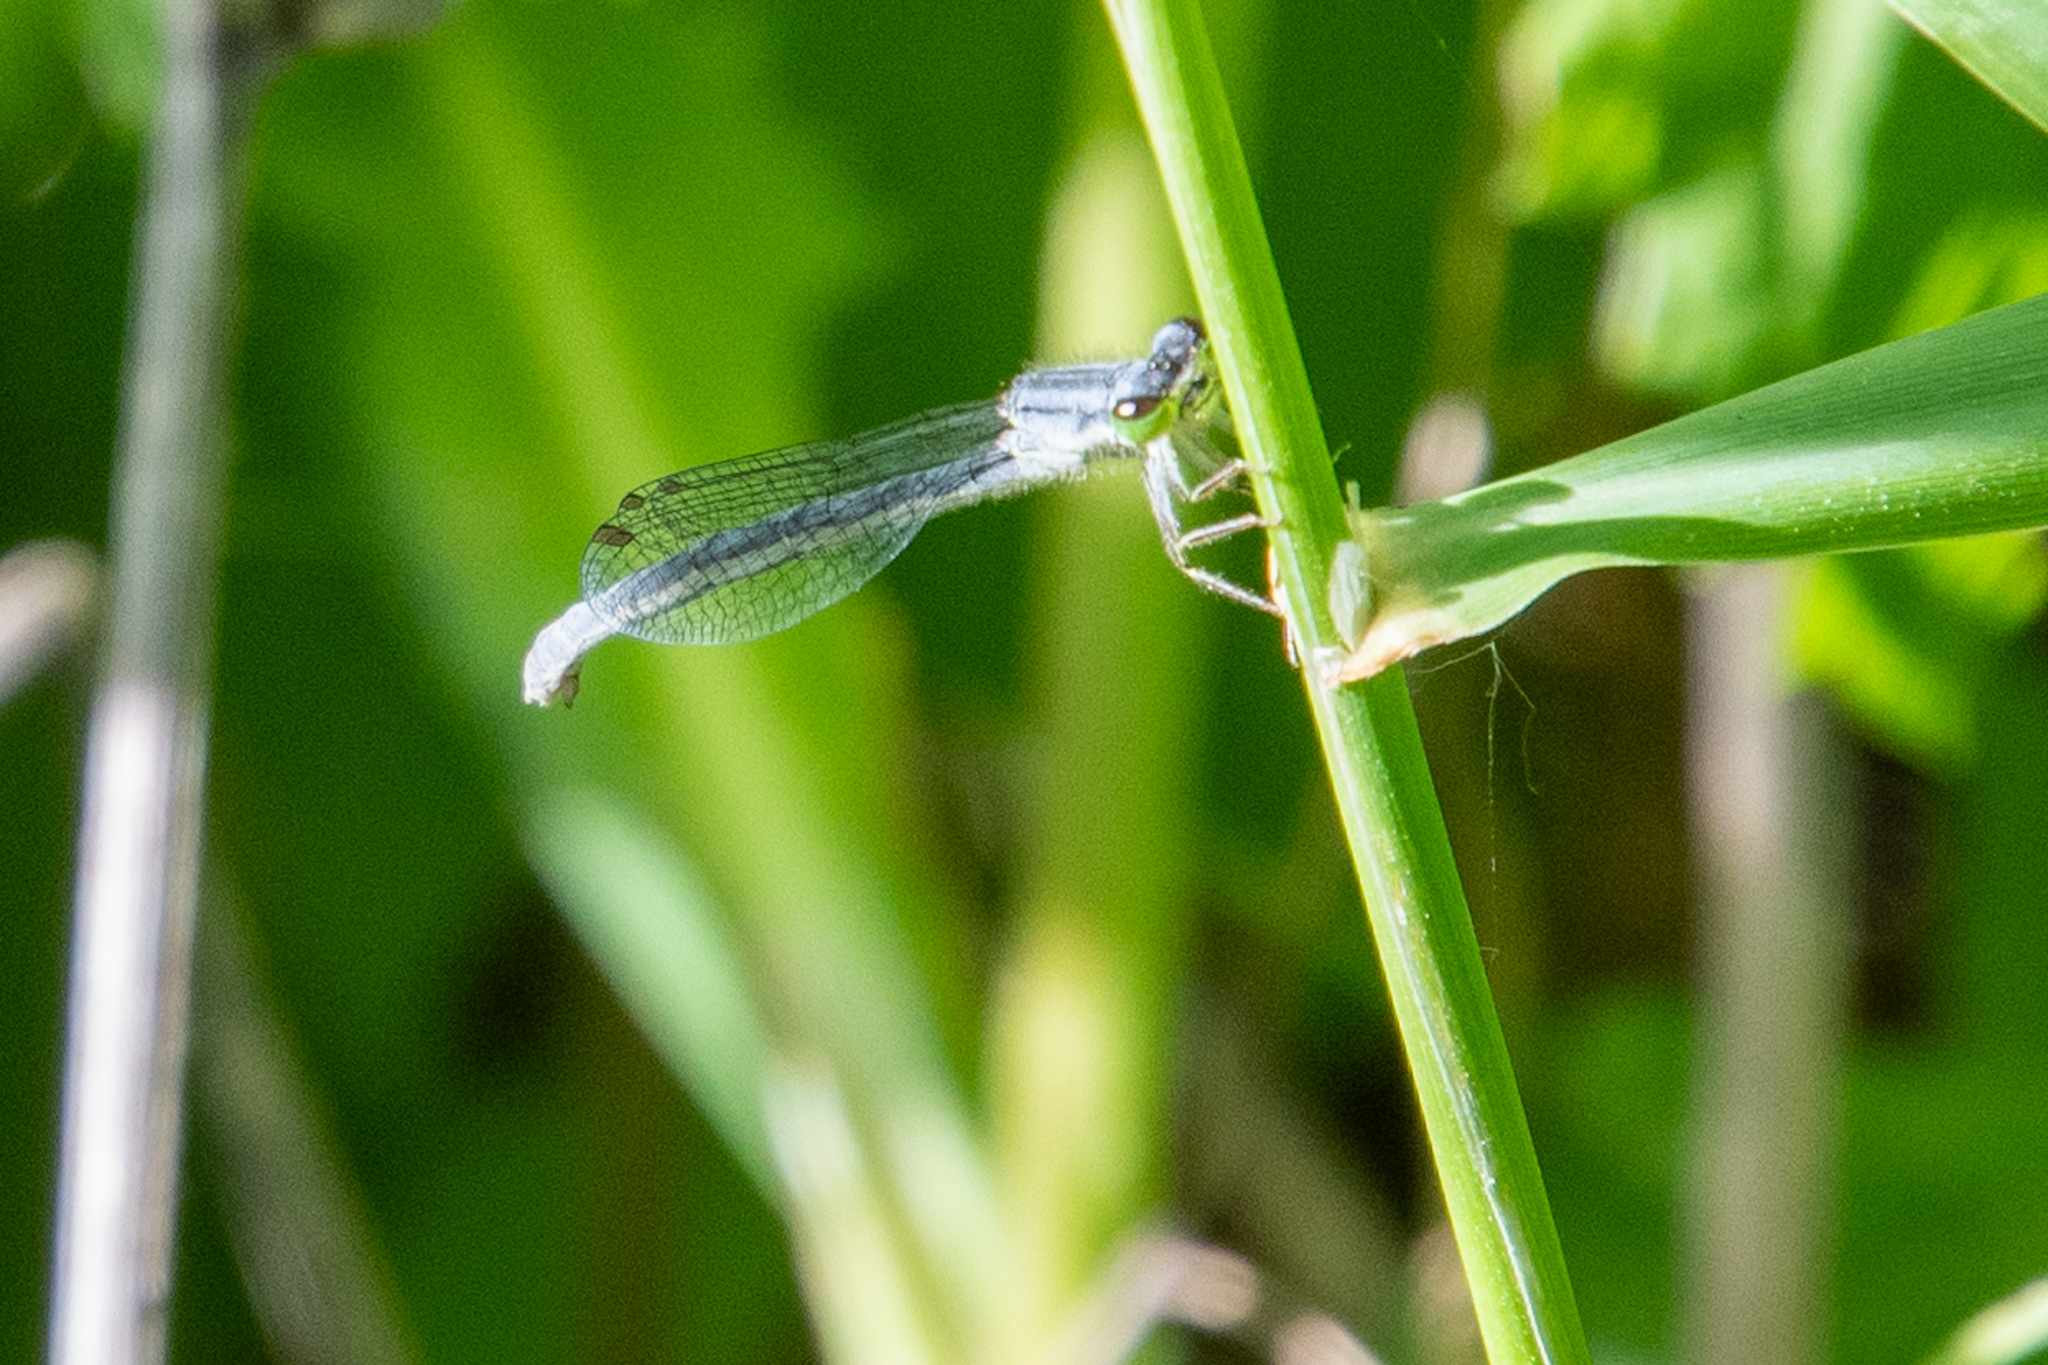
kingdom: Animalia
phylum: Arthropoda
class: Insecta
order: Odonata
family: Coenagrionidae
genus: Ischnura
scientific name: Ischnura verticalis
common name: Eastern forktail
